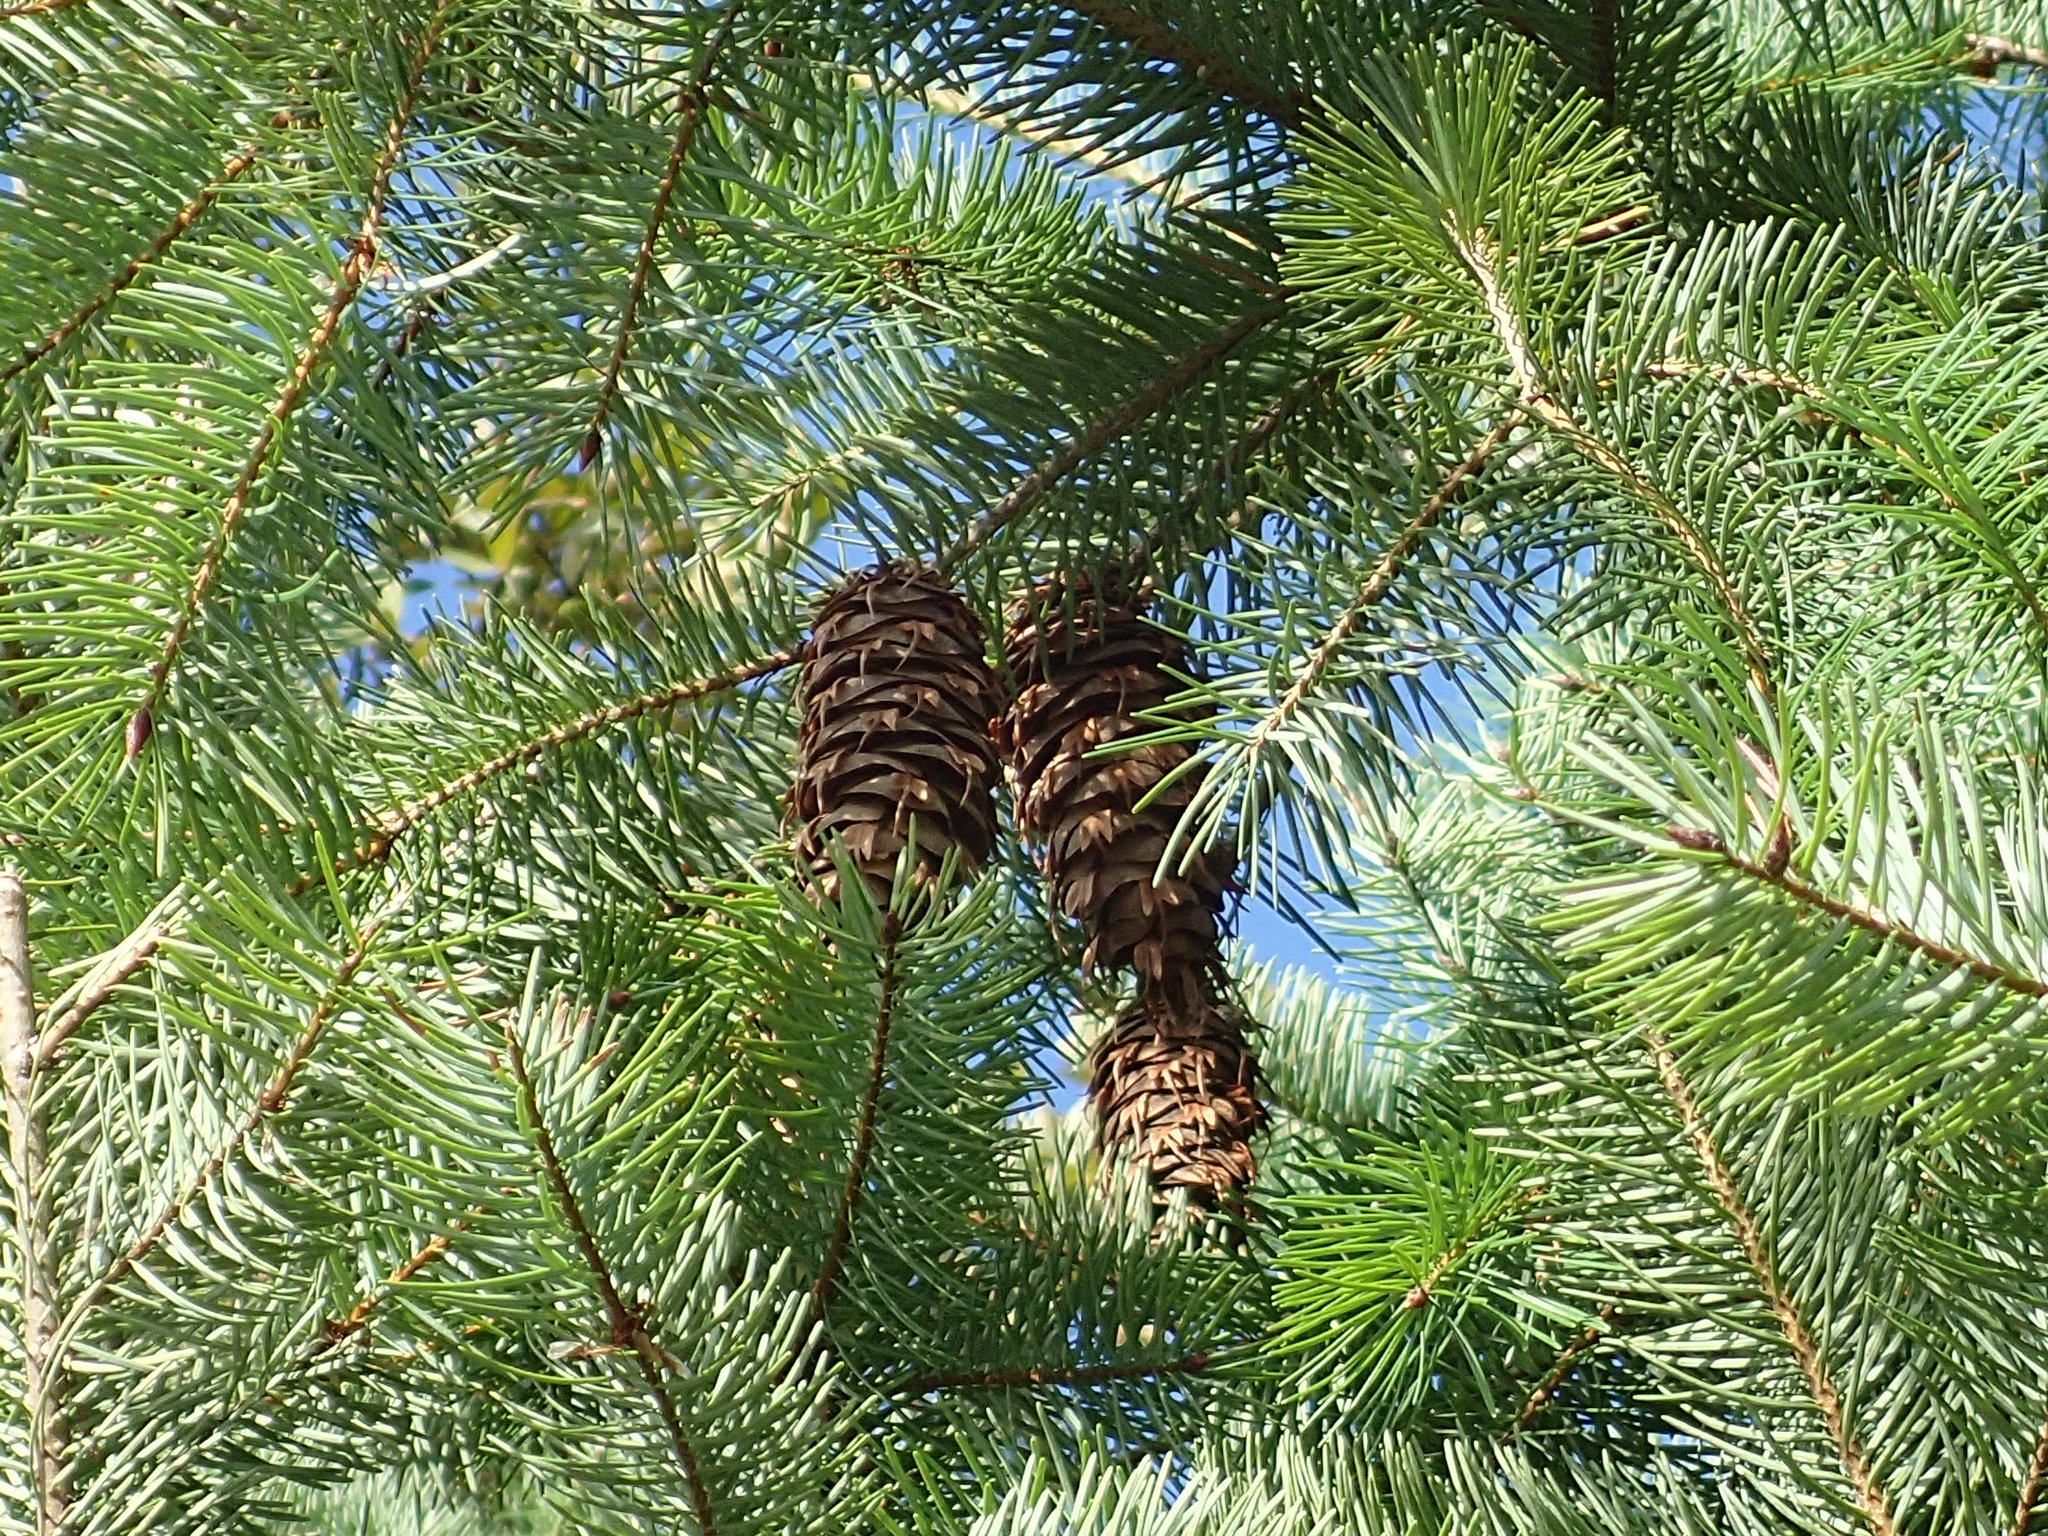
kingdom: Plantae
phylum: Tracheophyta
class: Pinopsida
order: Pinales
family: Pinaceae
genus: Pseudotsuga
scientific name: Pseudotsuga menziesii
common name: Douglas fir
